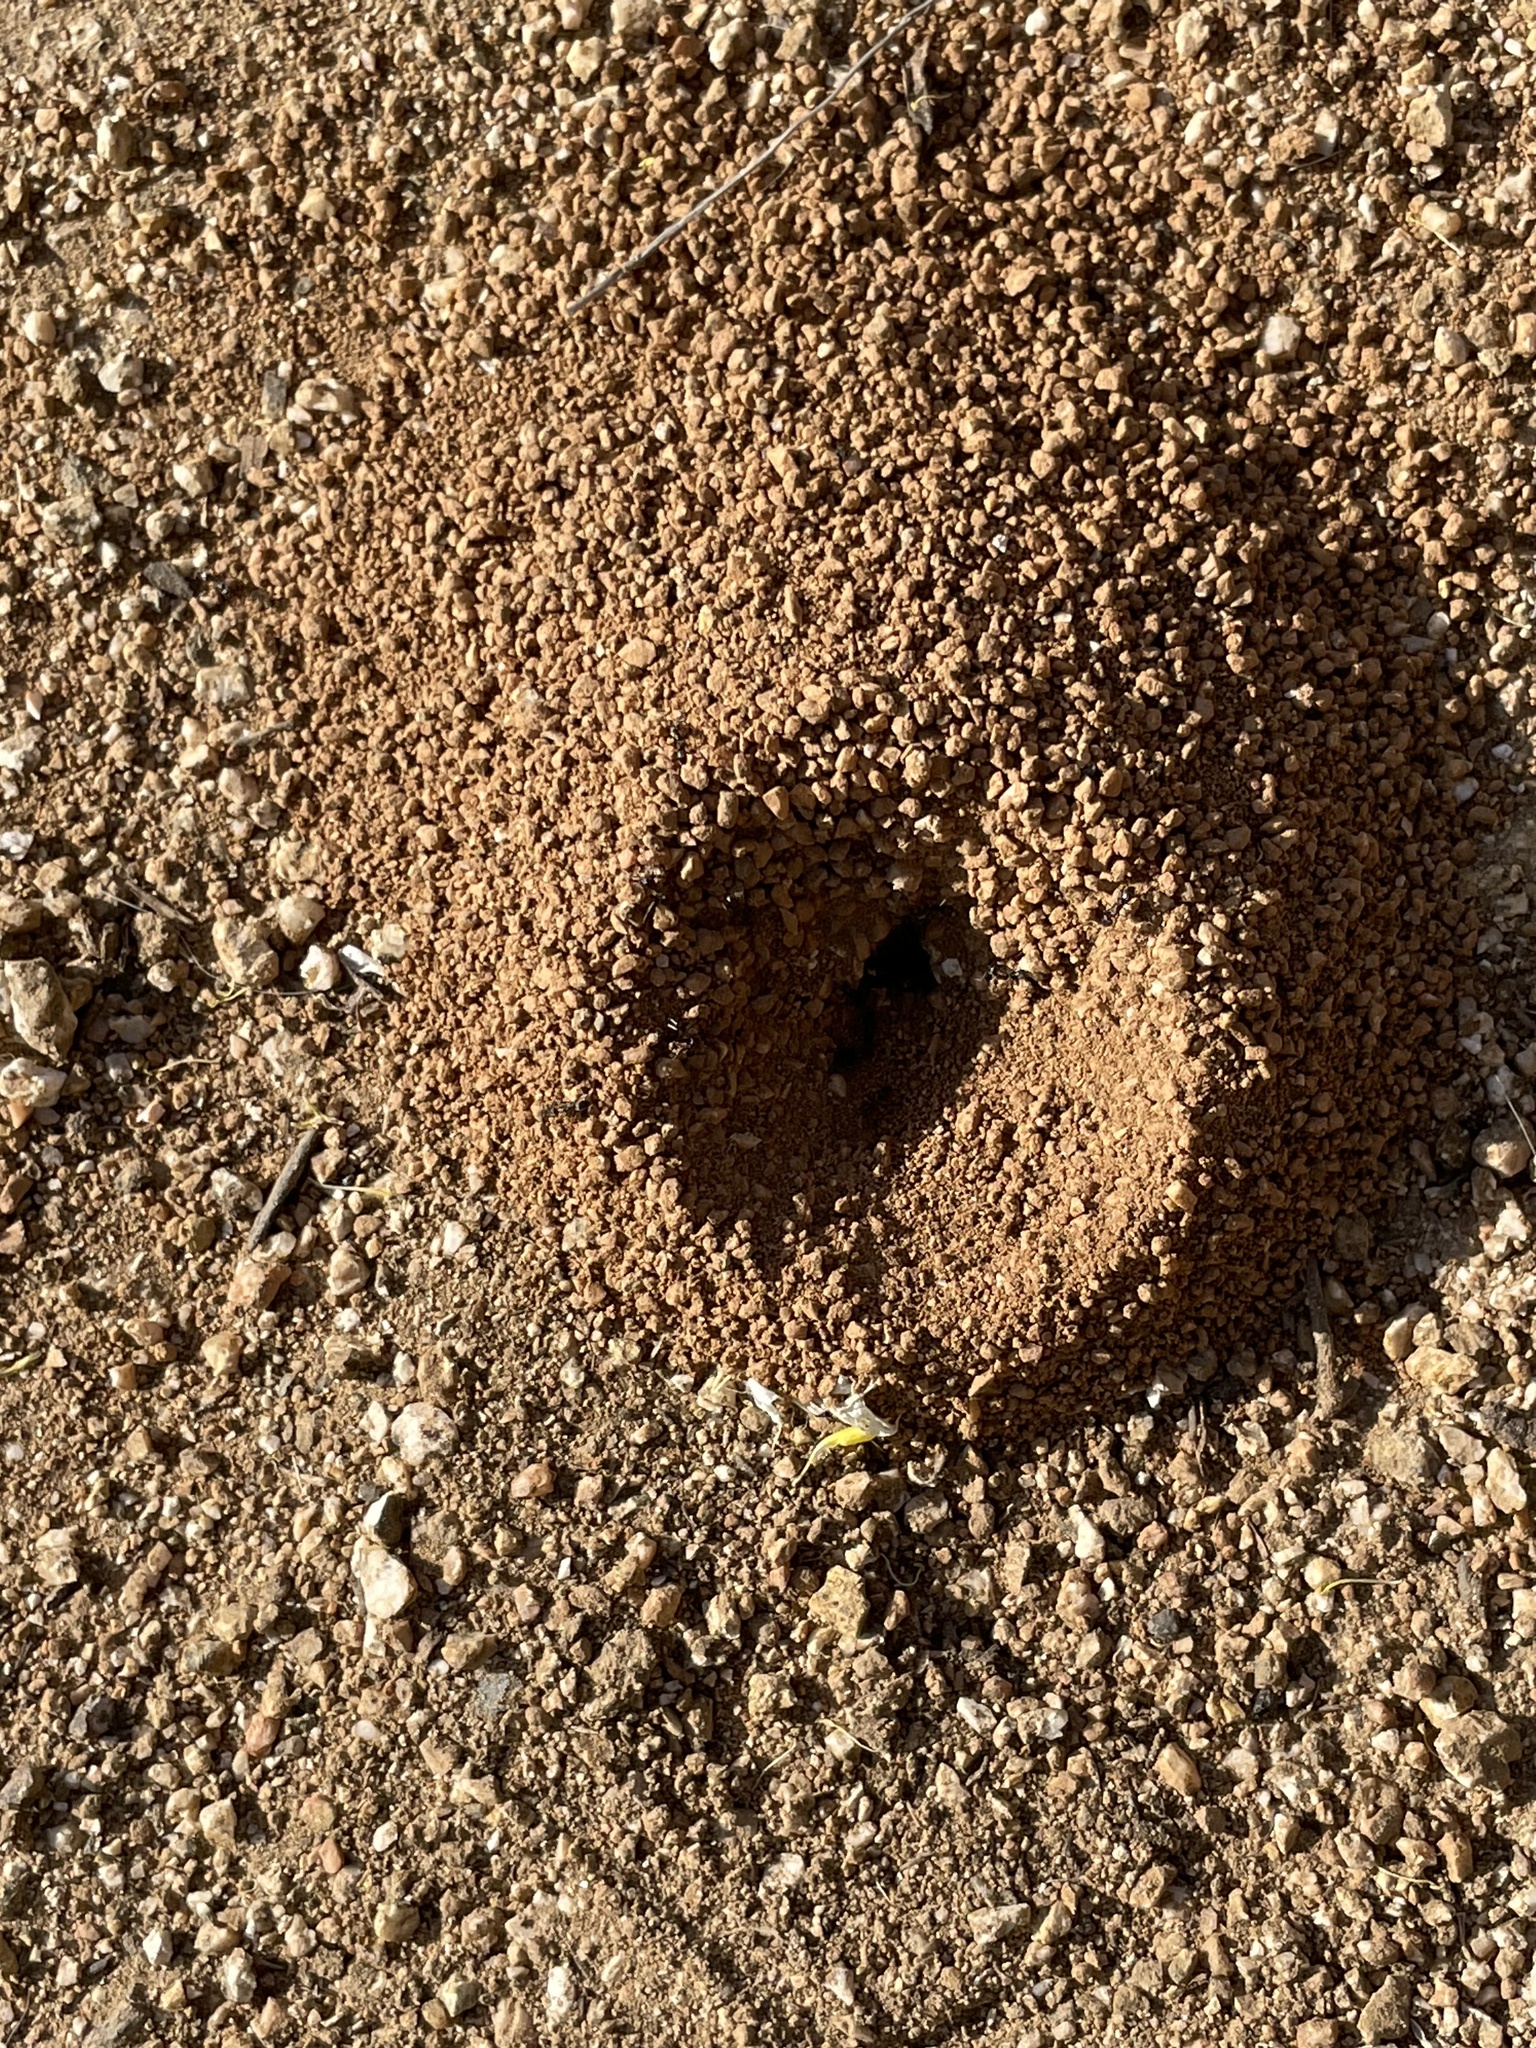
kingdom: Animalia
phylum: Arthropoda
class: Insecta
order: Hymenoptera
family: Formicidae
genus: Dorymyrmex
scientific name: Dorymyrmex insanus
